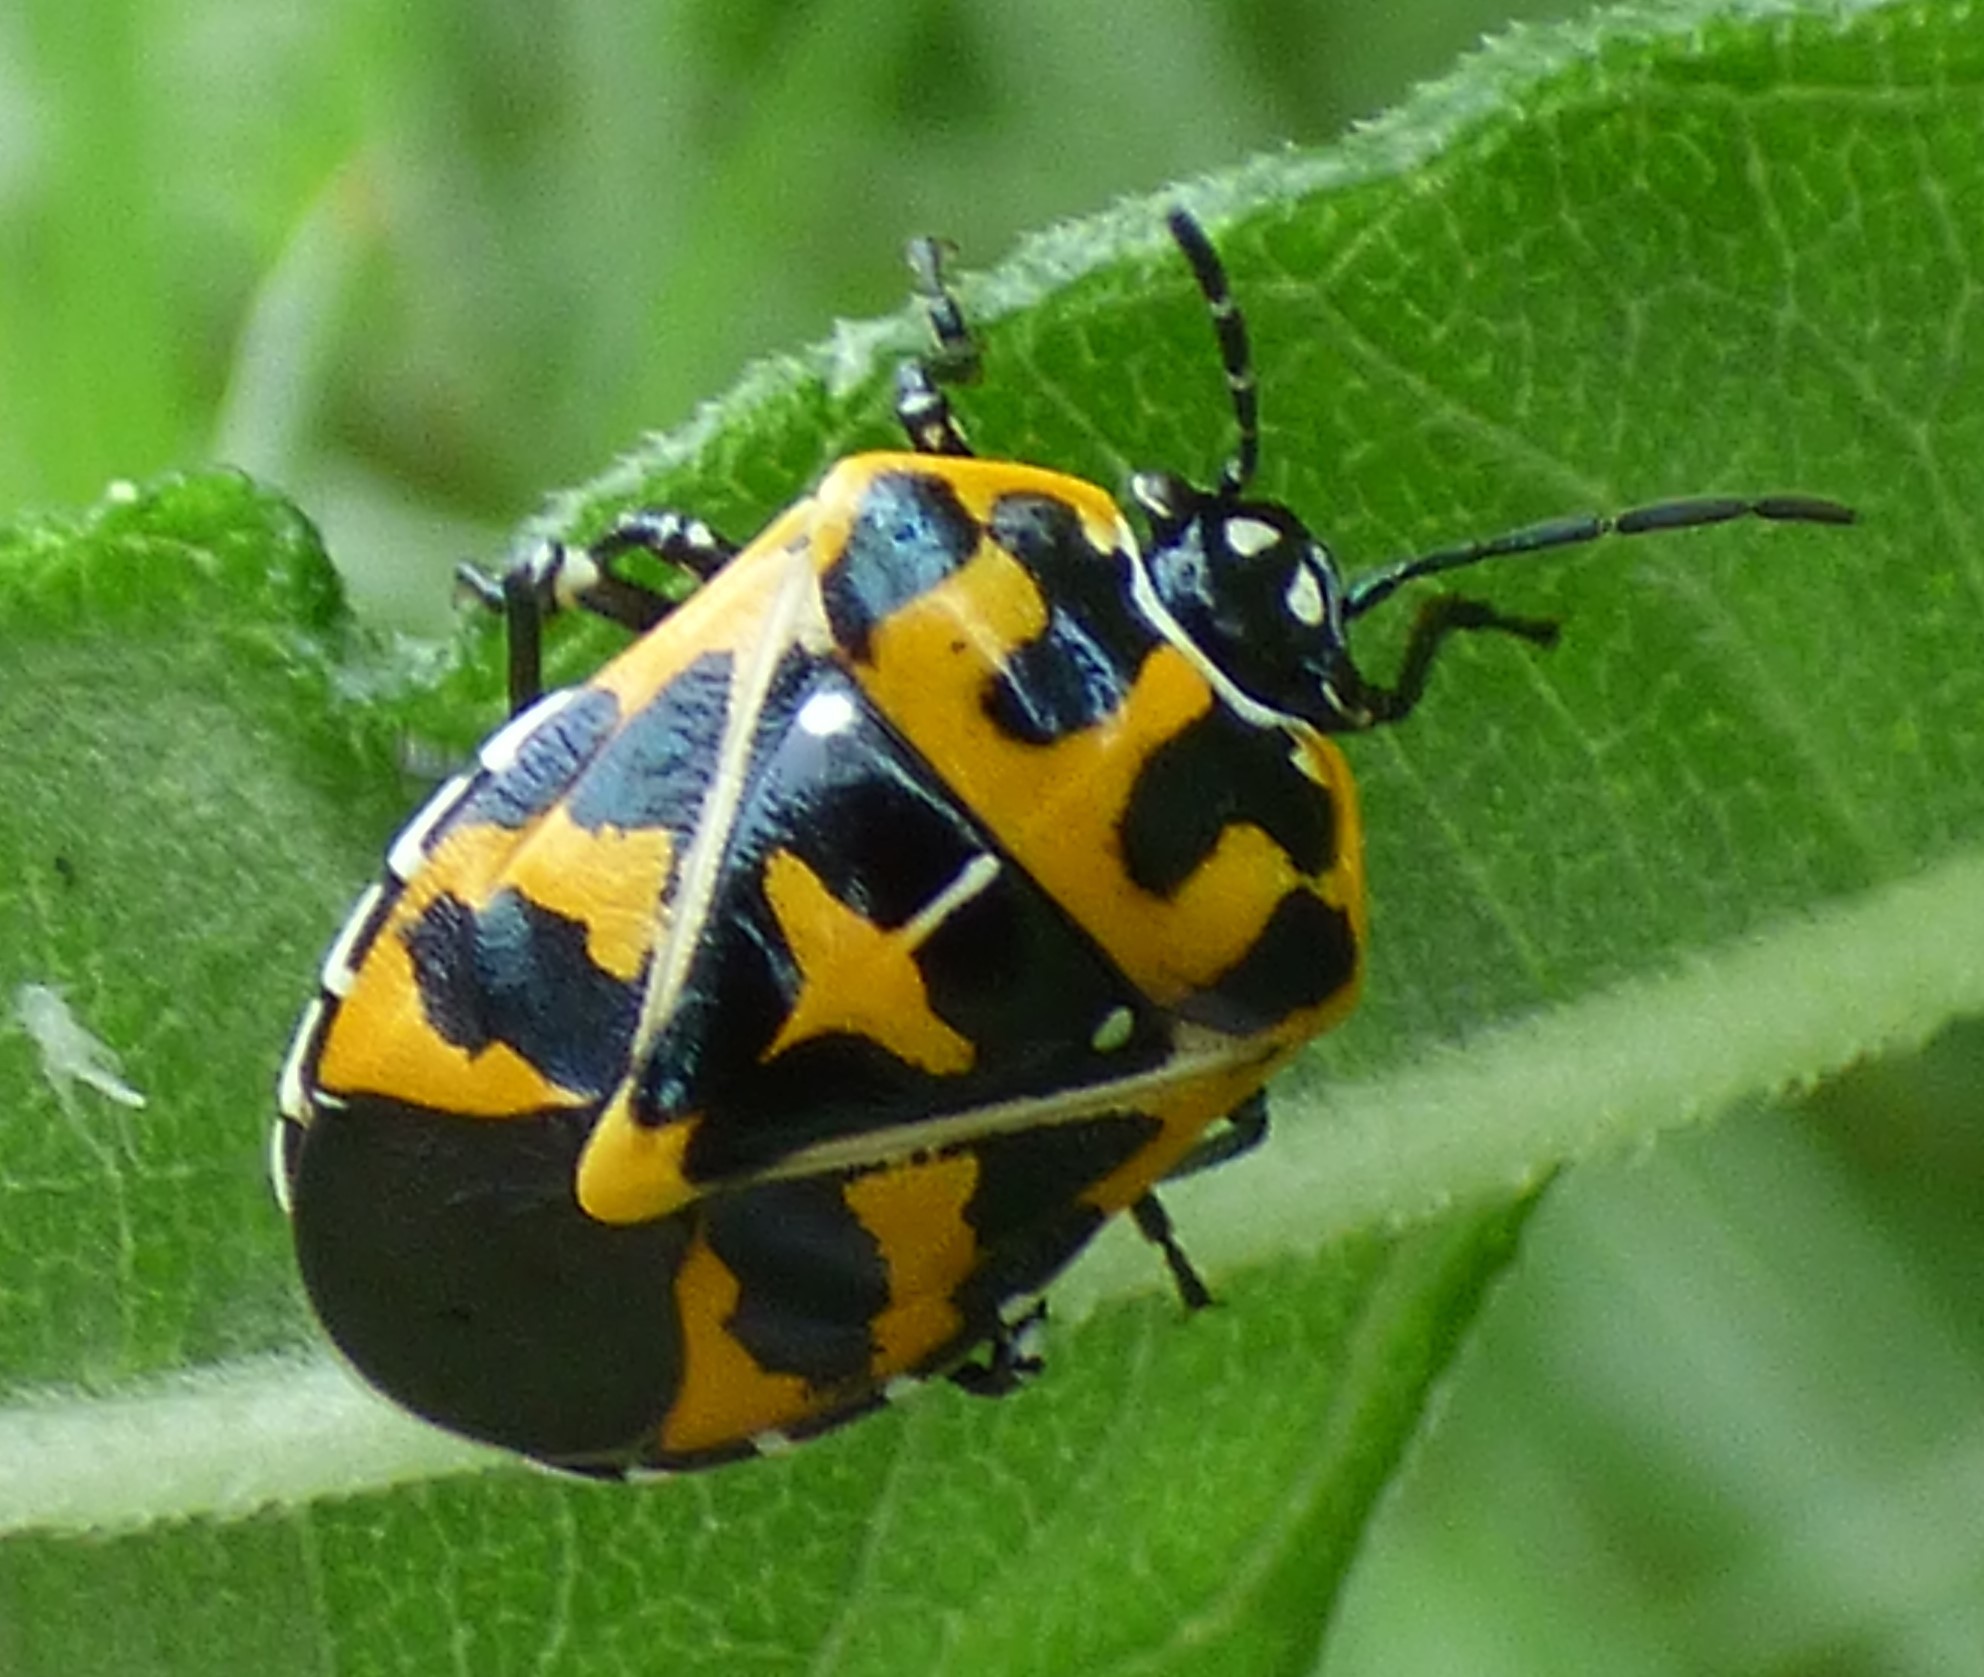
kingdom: Animalia
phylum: Arthropoda
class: Insecta
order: Hemiptera
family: Pentatomidae
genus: Murgantia
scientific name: Murgantia histrionica
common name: Harlequin bug
